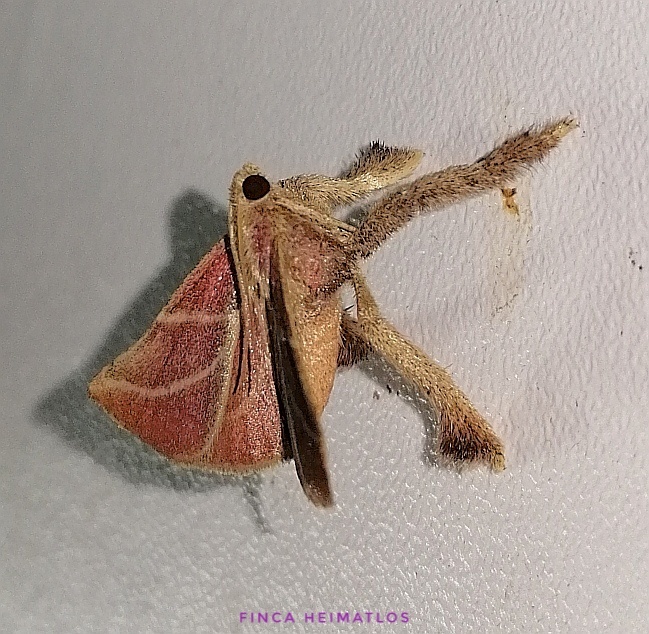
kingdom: Animalia
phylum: Arthropoda
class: Insecta
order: Lepidoptera
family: Pyralidae
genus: Pachypodistes
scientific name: Pachypodistes goeldii
